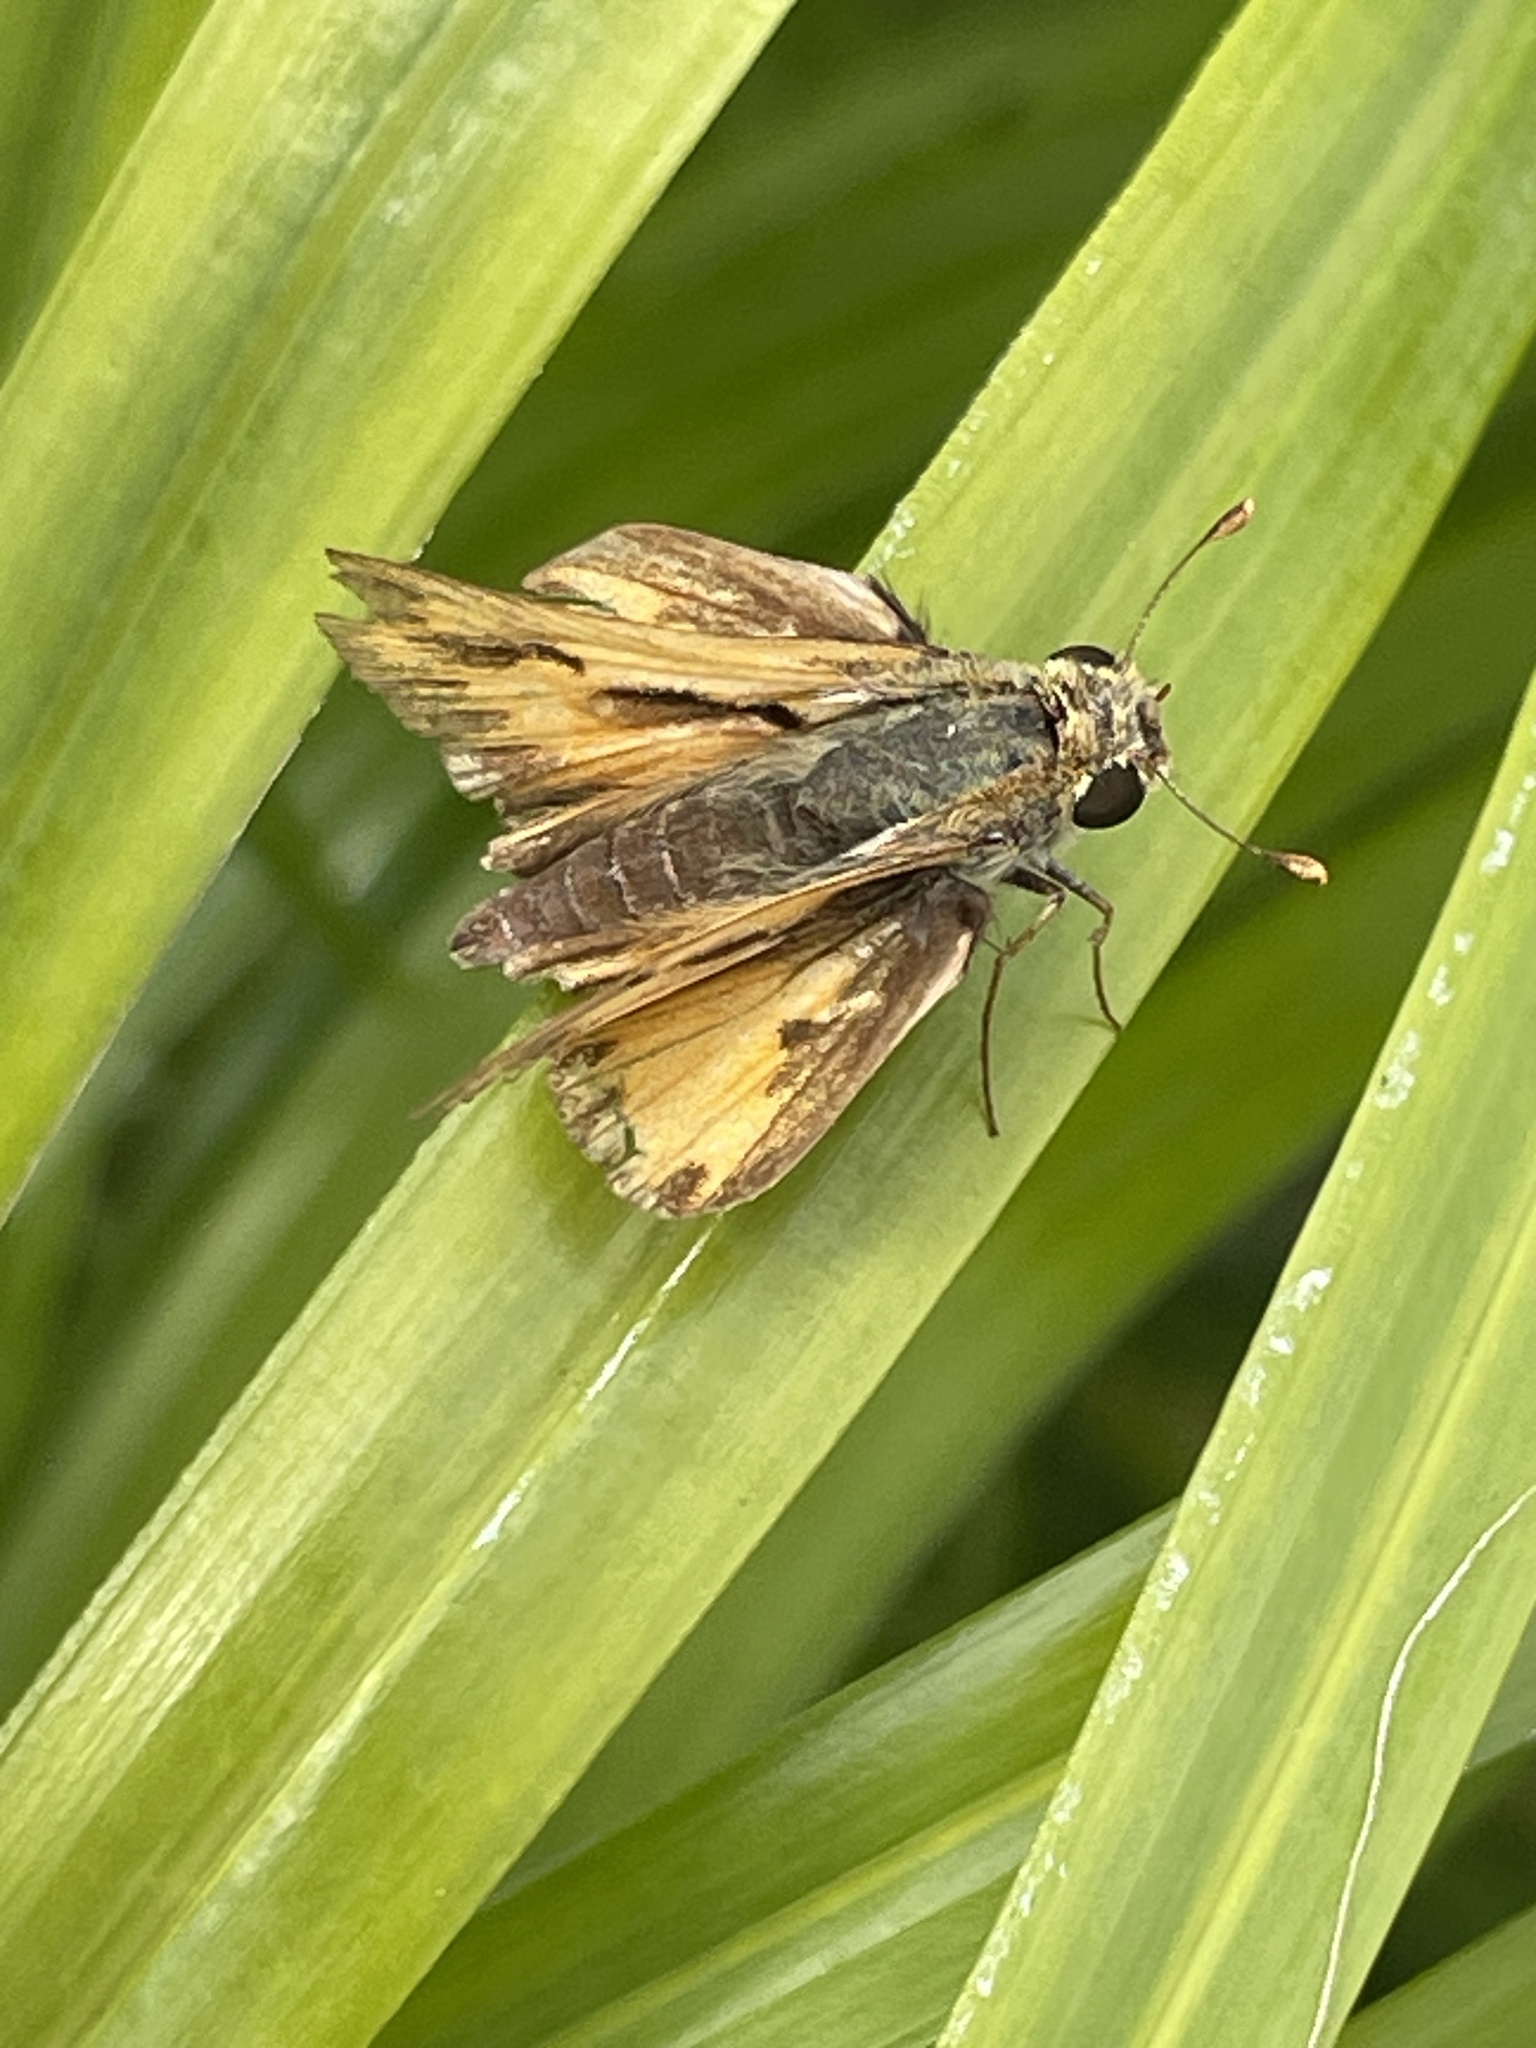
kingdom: Animalia
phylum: Arthropoda
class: Insecta
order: Lepidoptera
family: Hesperiidae
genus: Hylephila
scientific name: Hylephila phyleus
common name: Fiery skipper
